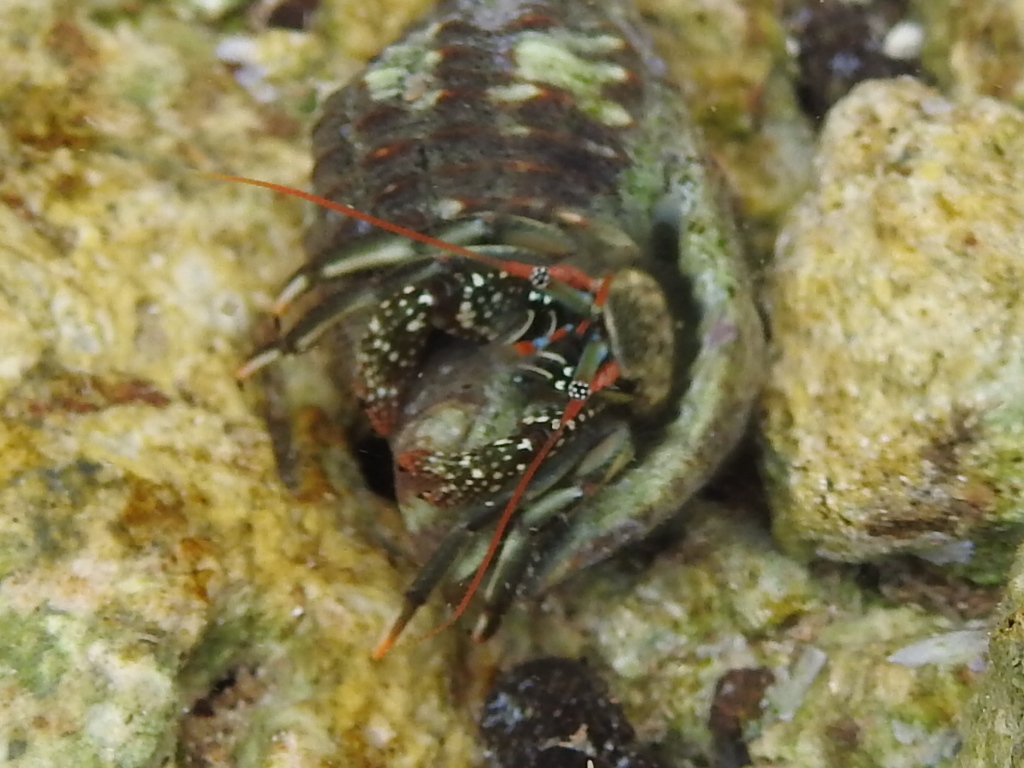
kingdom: Animalia
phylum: Arthropoda
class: Malacostraca
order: Decapoda
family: Diogenidae
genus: Clibanarius
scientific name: Clibanarius brasiliensis
